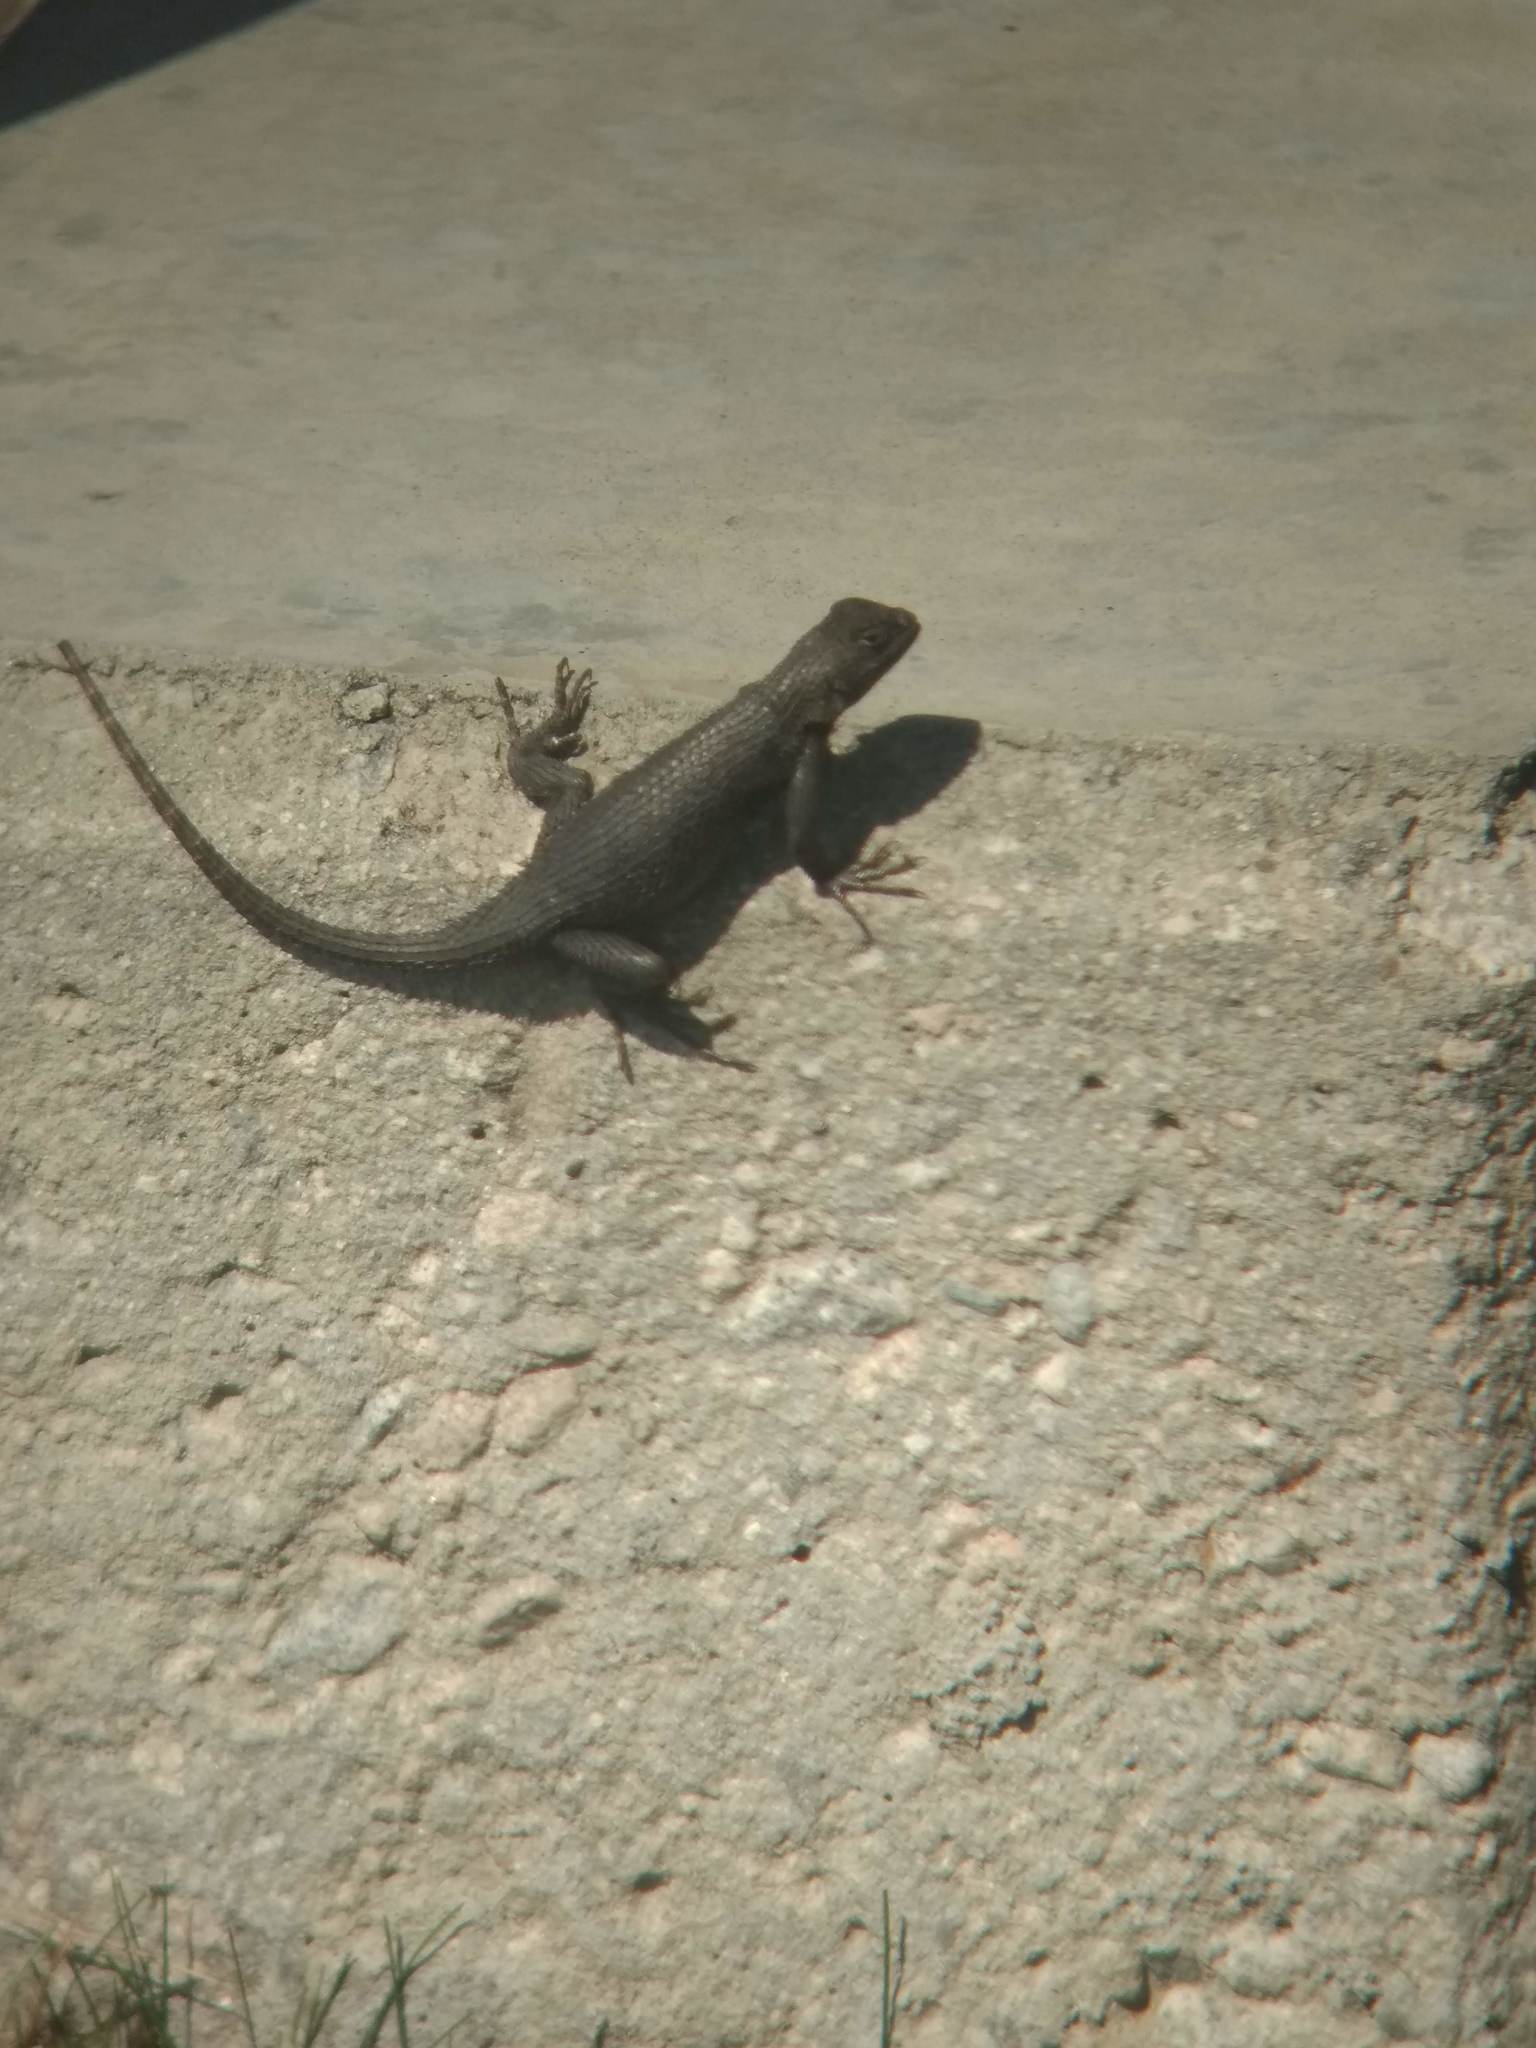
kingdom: Animalia
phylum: Chordata
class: Squamata
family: Phrynosomatidae
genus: Sceloporus
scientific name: Sceloporus occidentalis
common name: Western fence lizard
